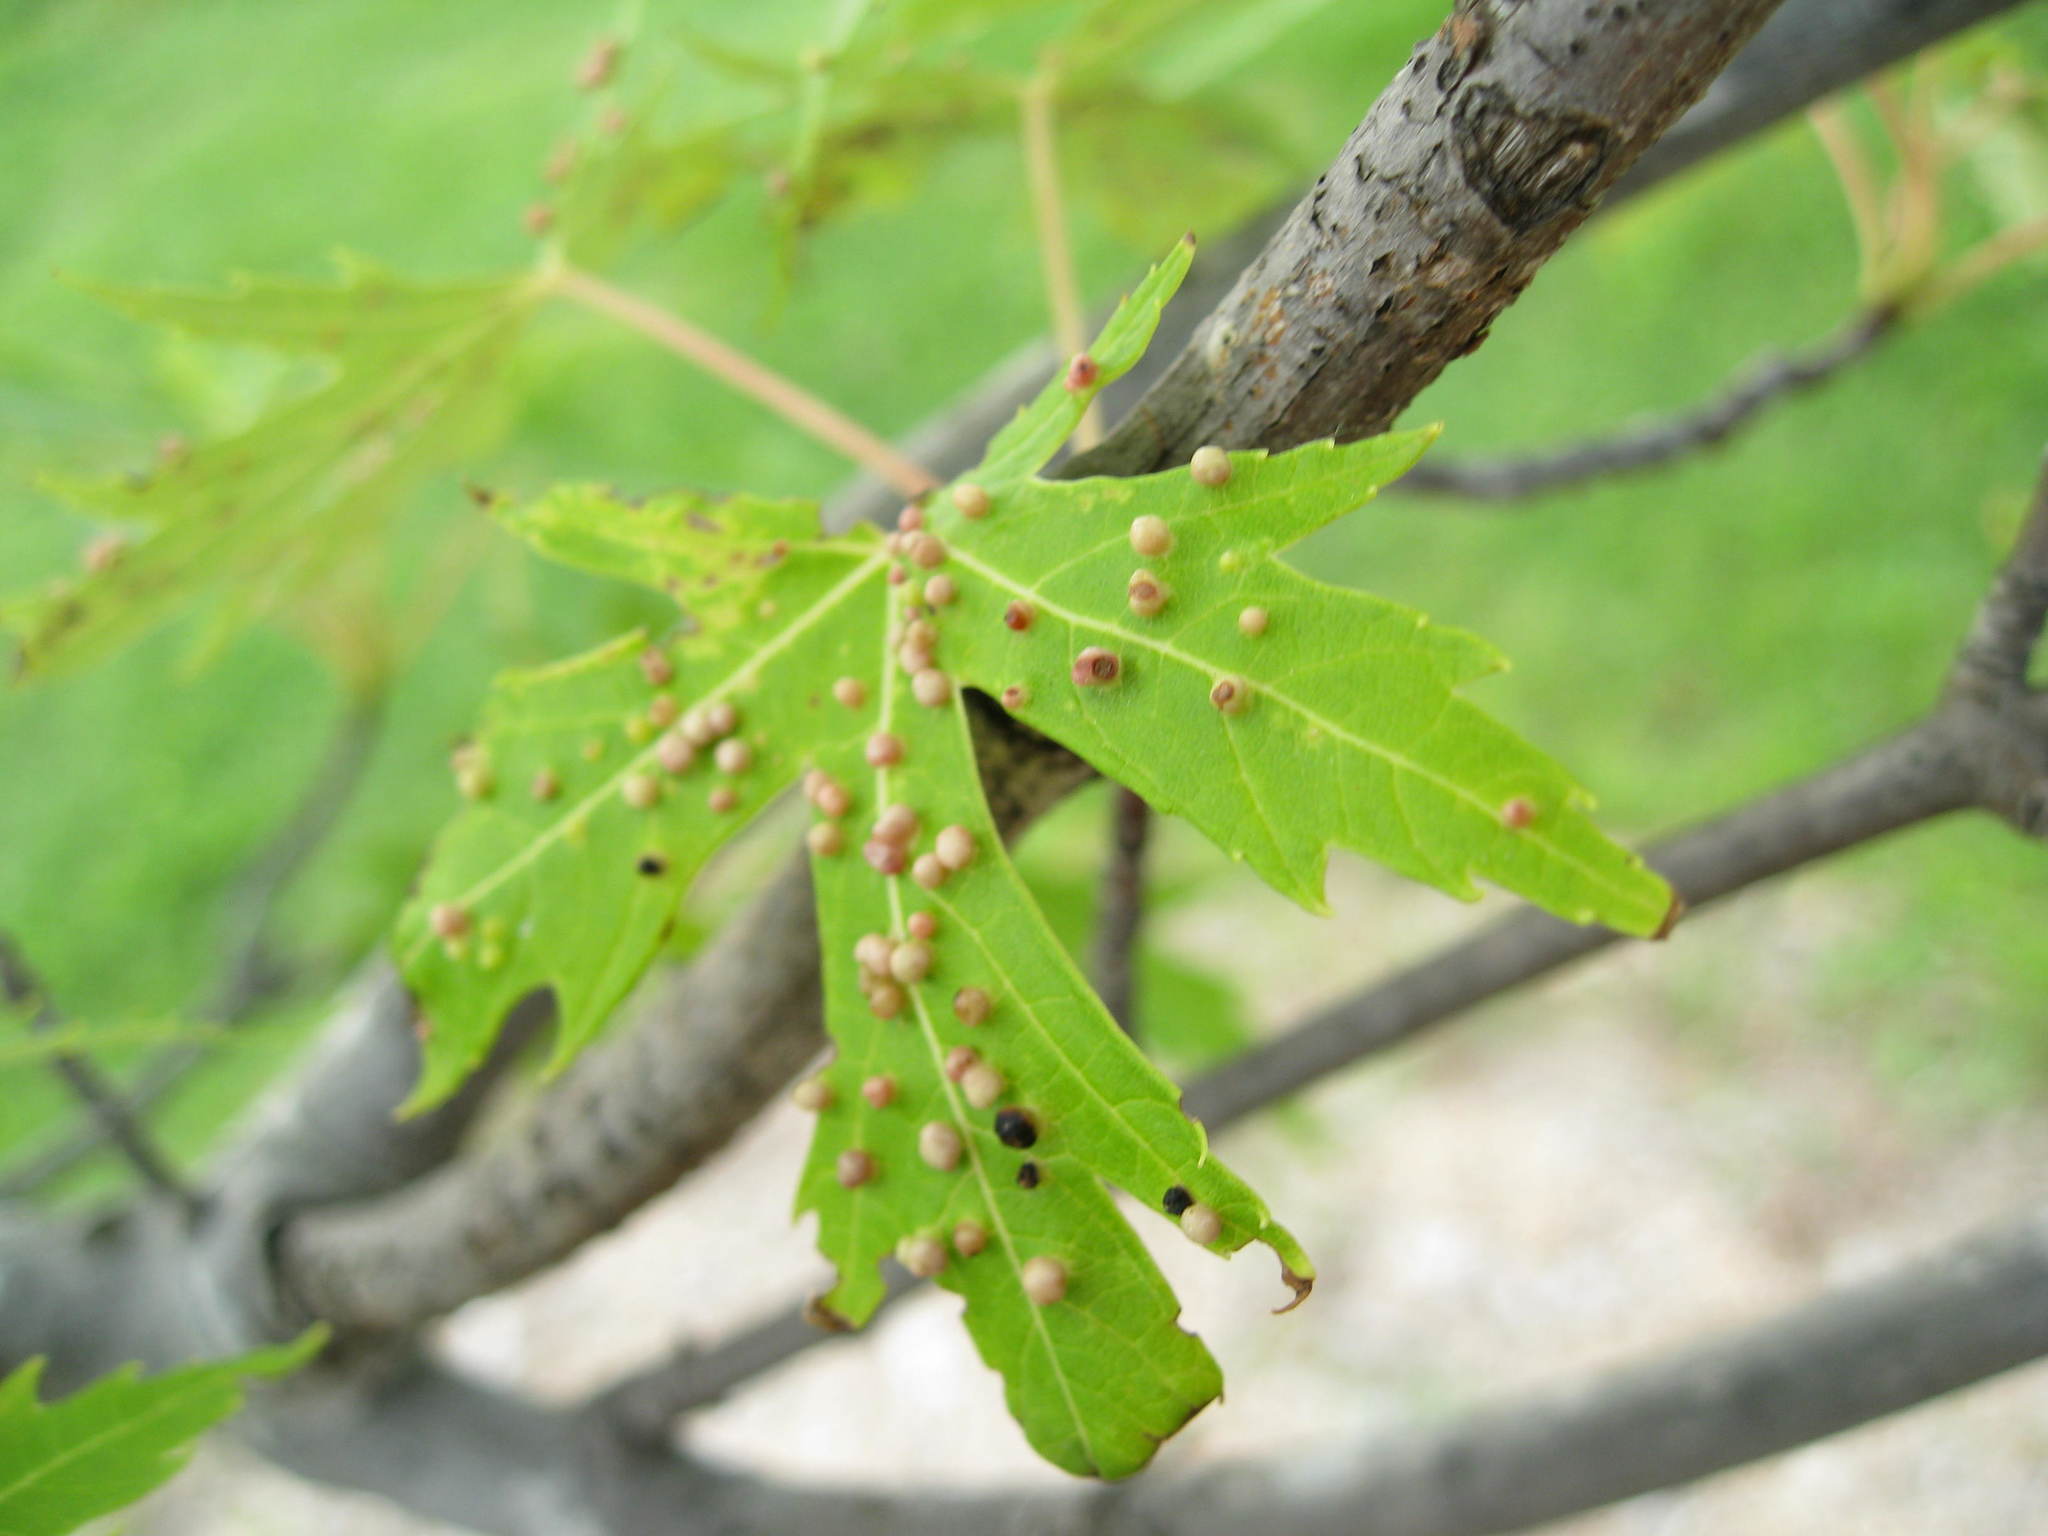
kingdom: Animalia
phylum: Arthropoda
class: Arachnida
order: Trombidiformes
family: Eriophyidae
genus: Vasates
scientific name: Vasates quadripedes
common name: Maple bladder gall mite
